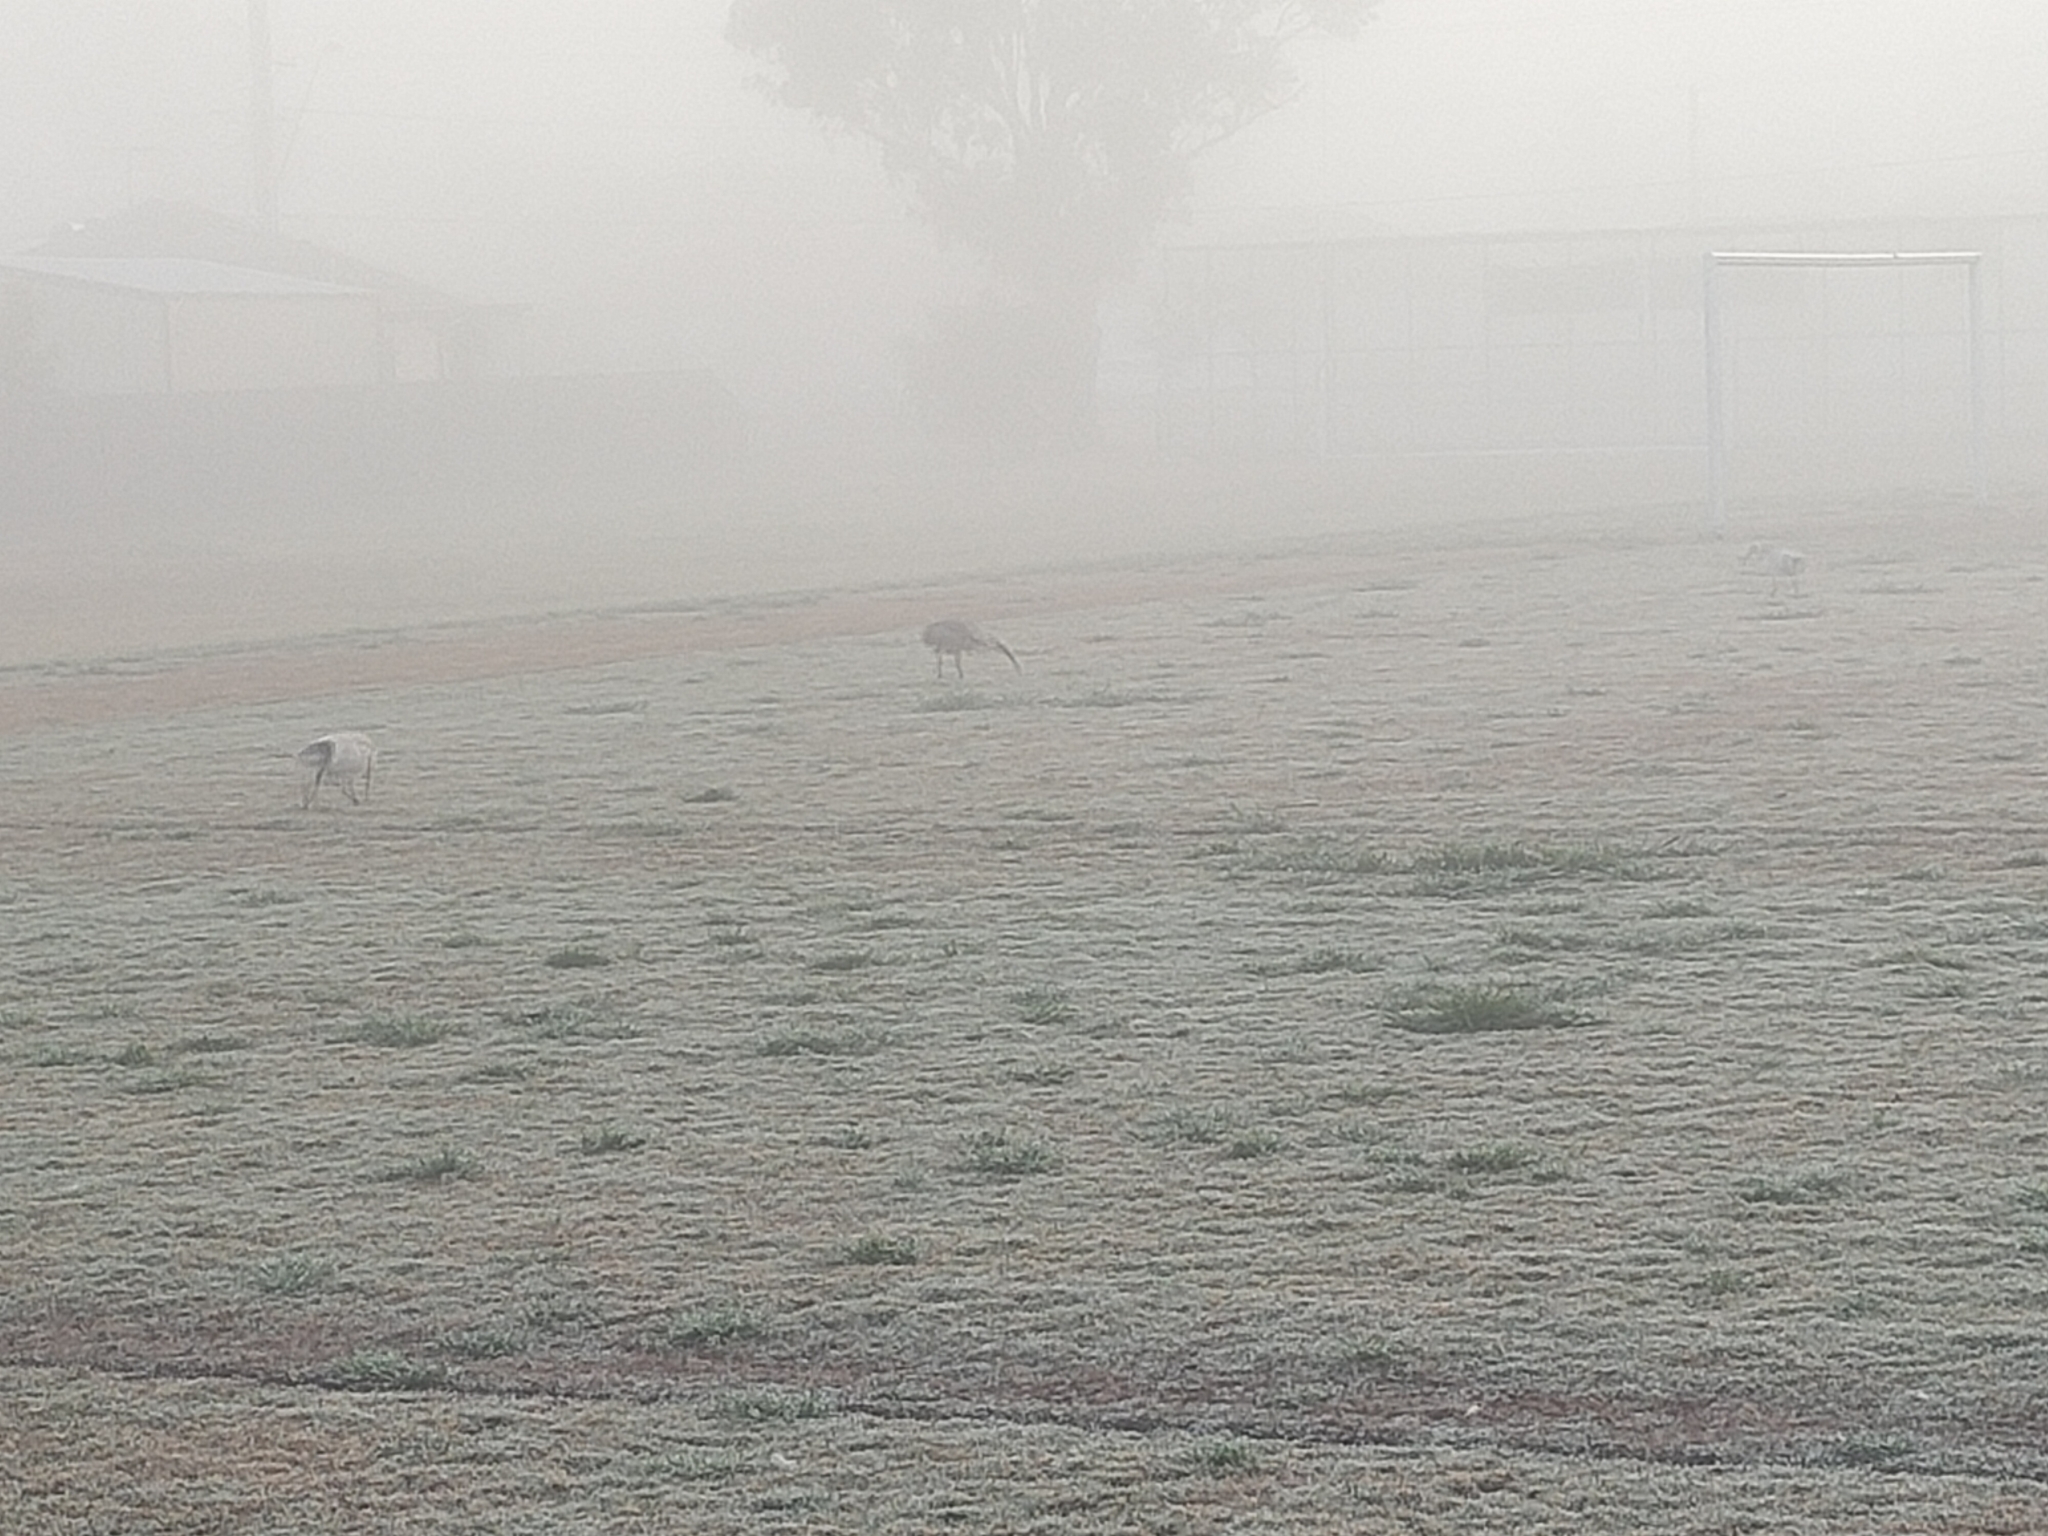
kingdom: Animalia
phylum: Chordata
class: Aves
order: Pelecaniformes
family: Threskiornithidae
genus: Threskiornis
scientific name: Threskiornis molucca
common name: Australian white ibis
